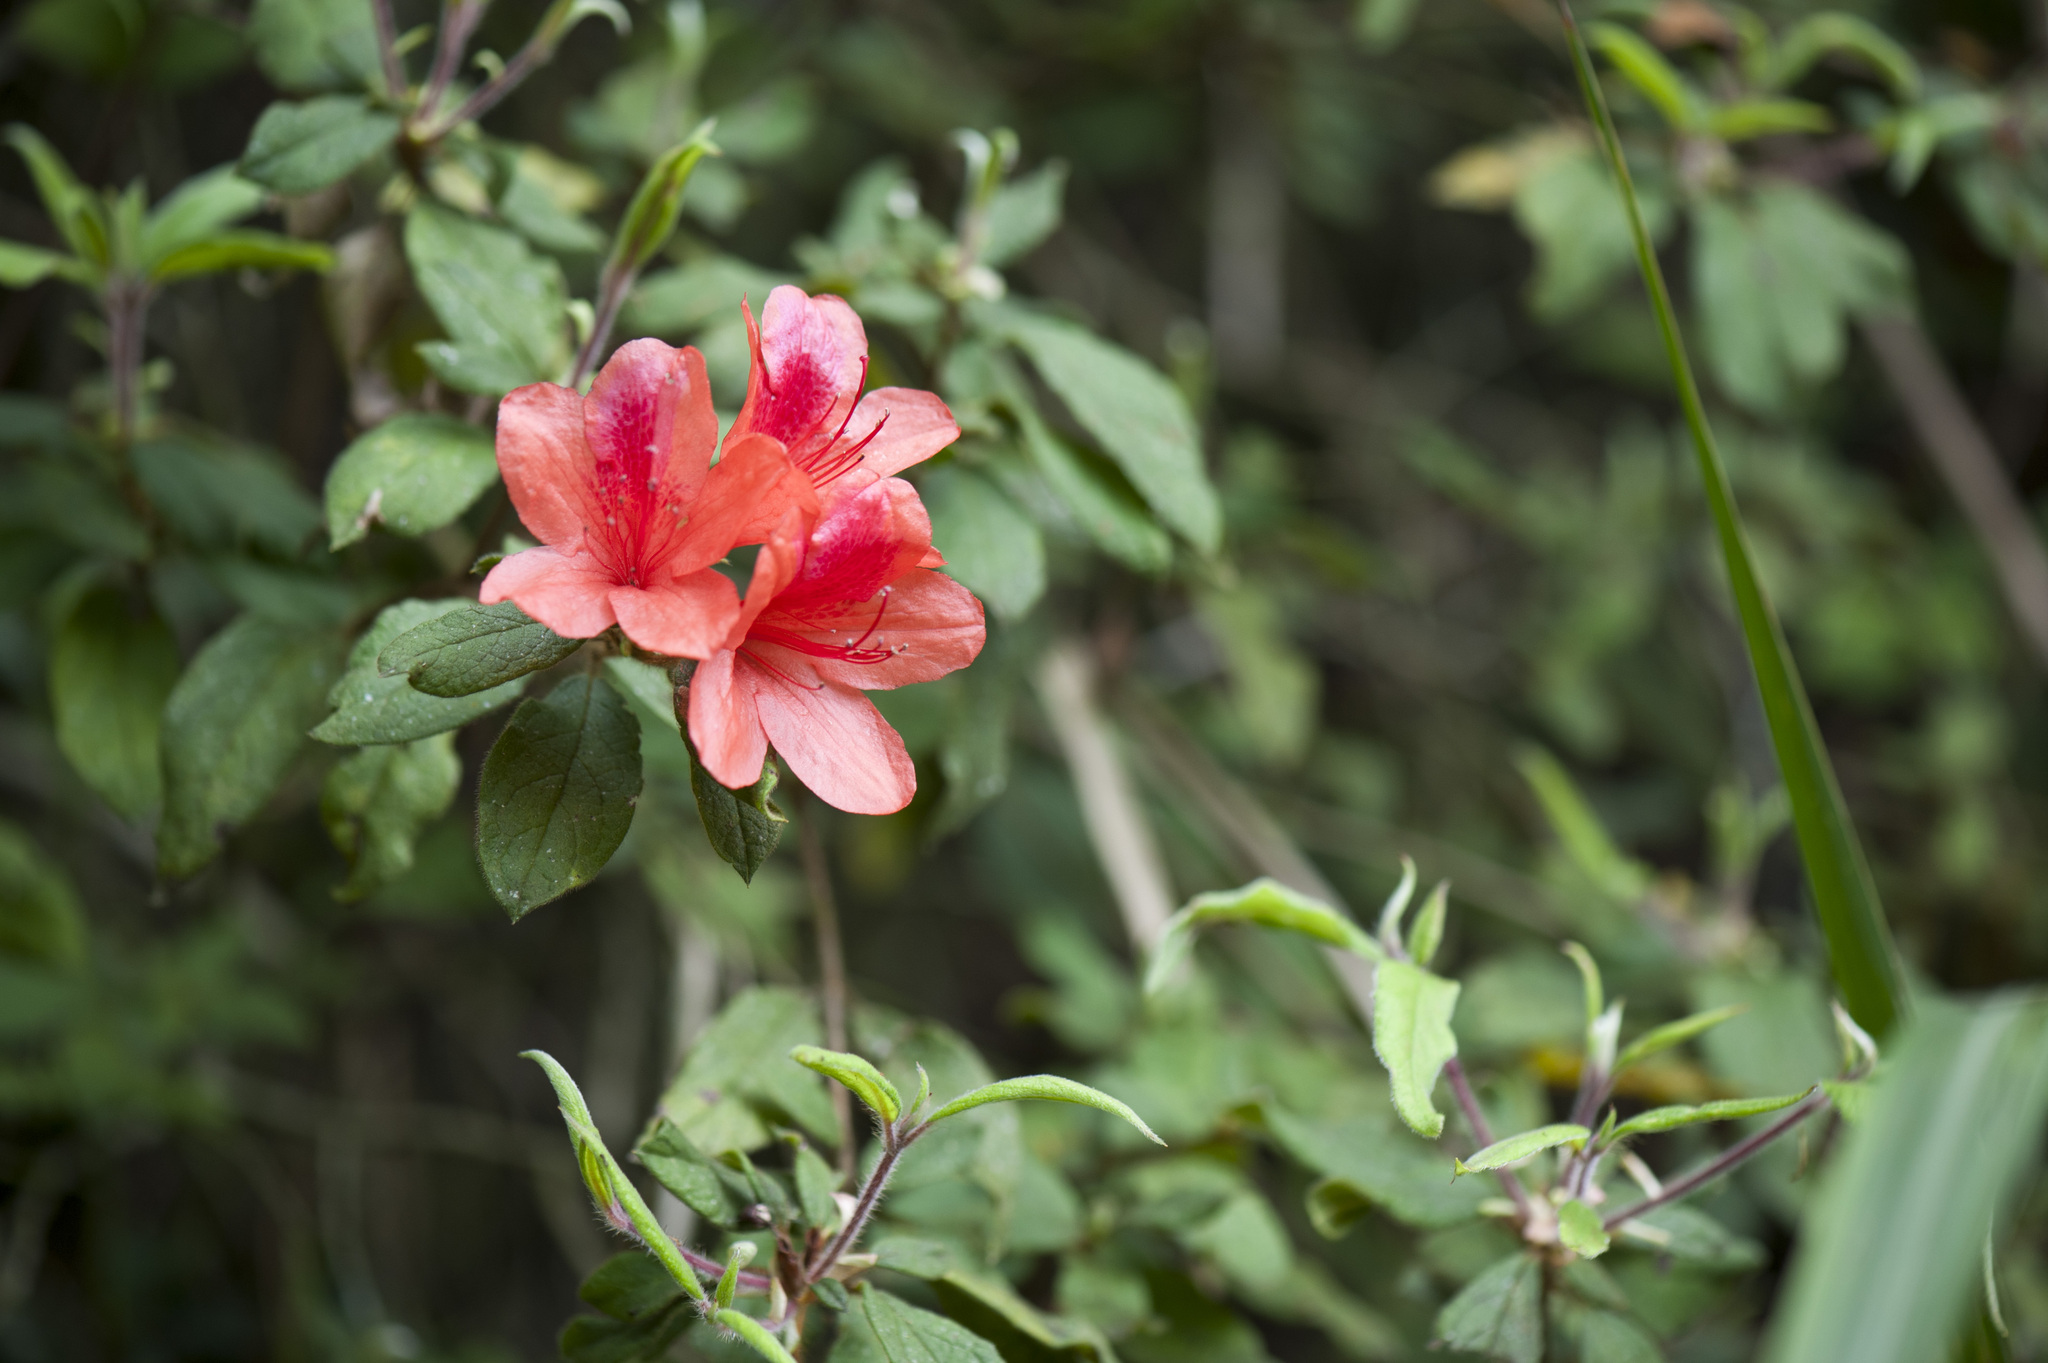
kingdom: Plantae
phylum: Tracheophyta
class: Magnoliopsida
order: Ericales
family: Ericaceae
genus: Rhododendron
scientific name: Rhododendron oldhamii
